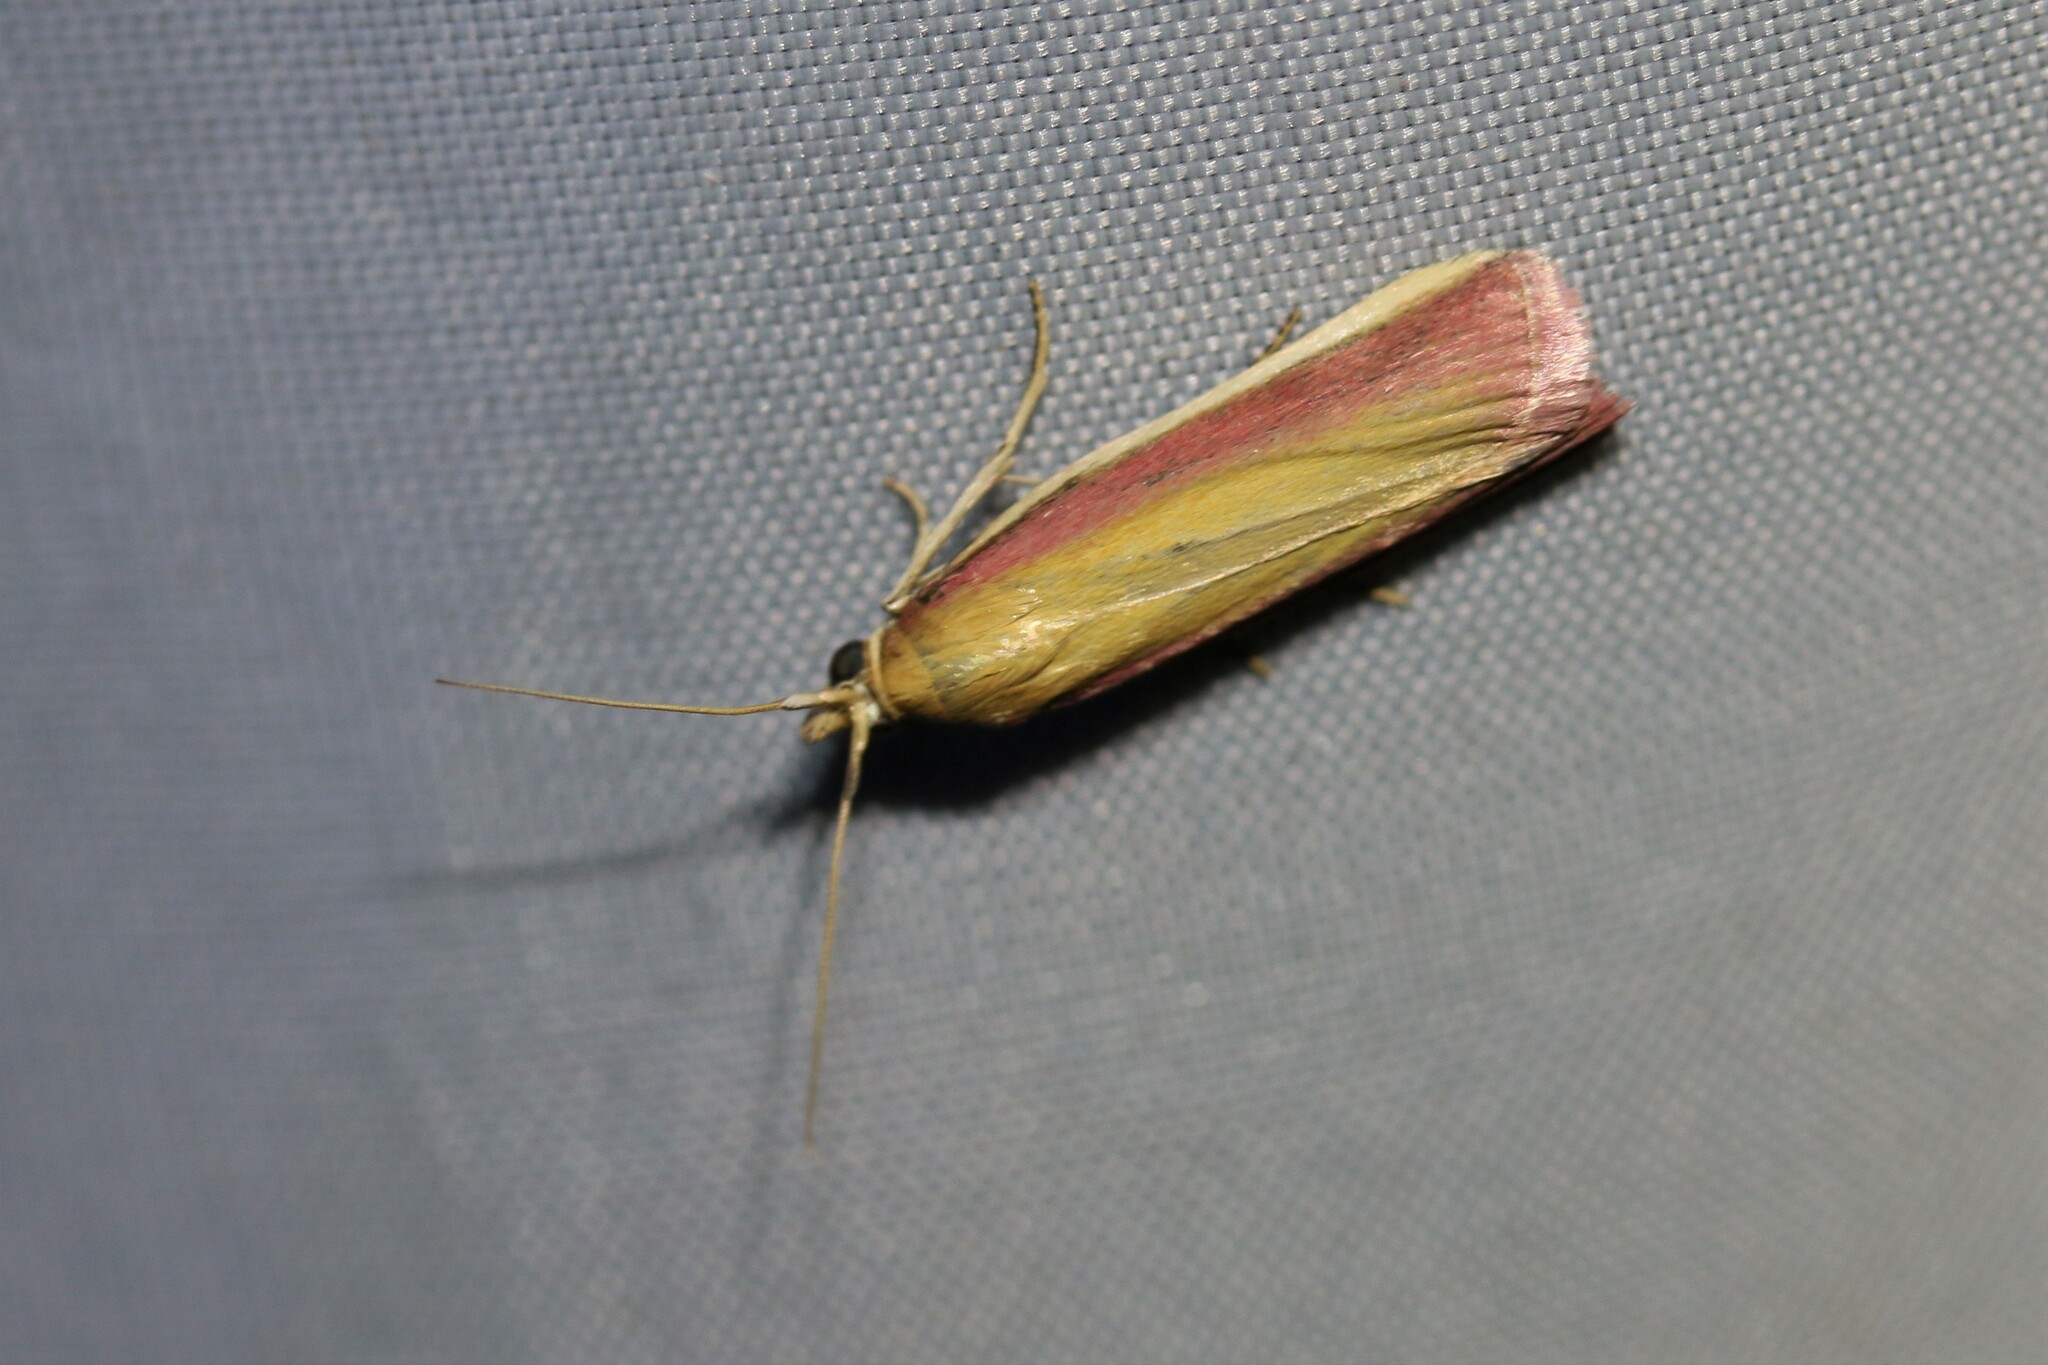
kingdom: Animalia
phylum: Arthropoda
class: Insecta
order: Lepidoptera
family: Pyralidae
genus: Oncocera
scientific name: Oncocera semirubella
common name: Rosy-striped knot-horn
